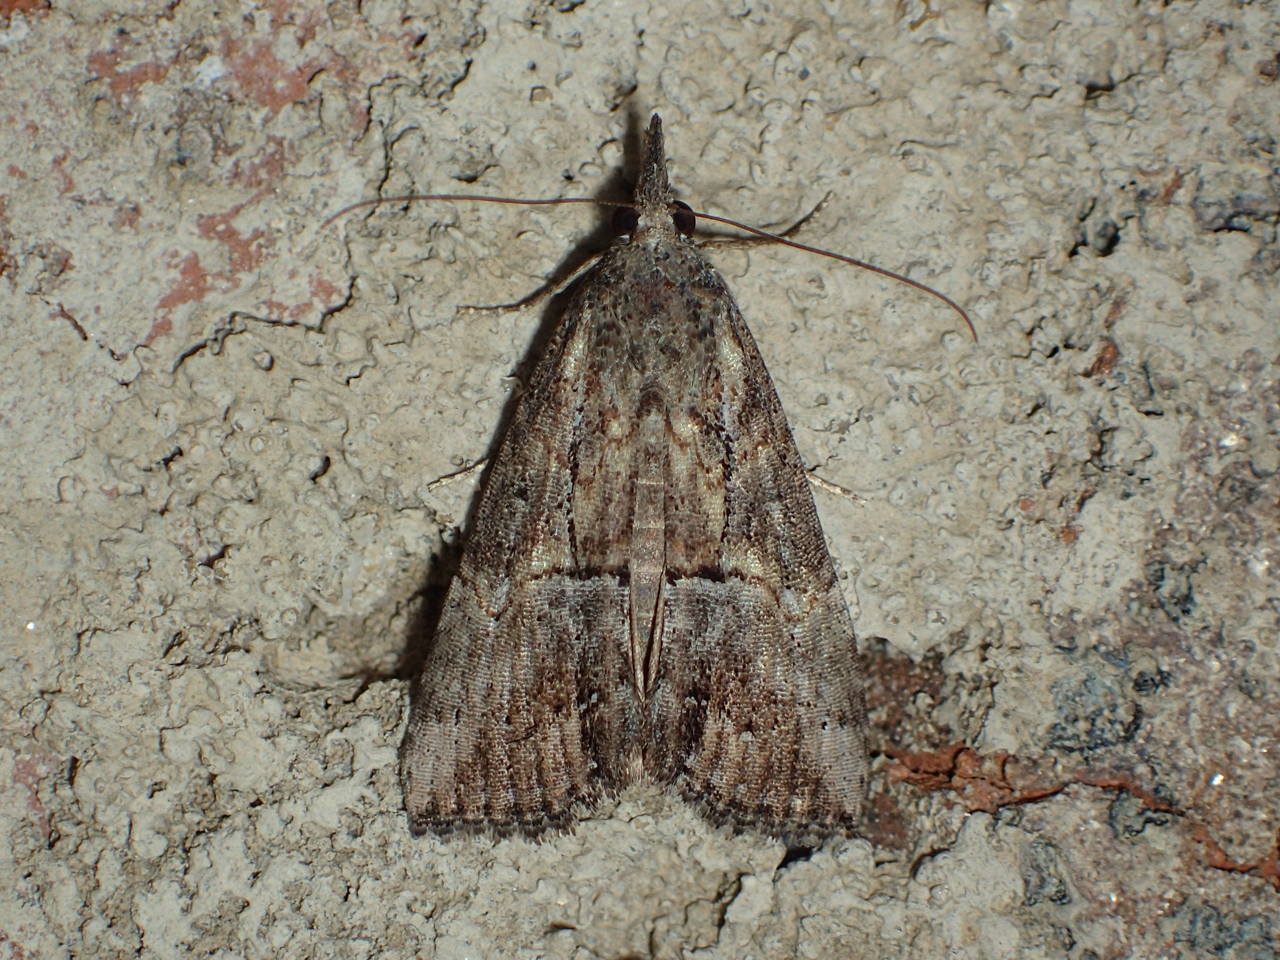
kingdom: Animalia
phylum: Arthropoda
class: Insecta
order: Lepidoptera
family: Erebidae
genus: Hypena
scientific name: Hypena scabra
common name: Green cloverworm
